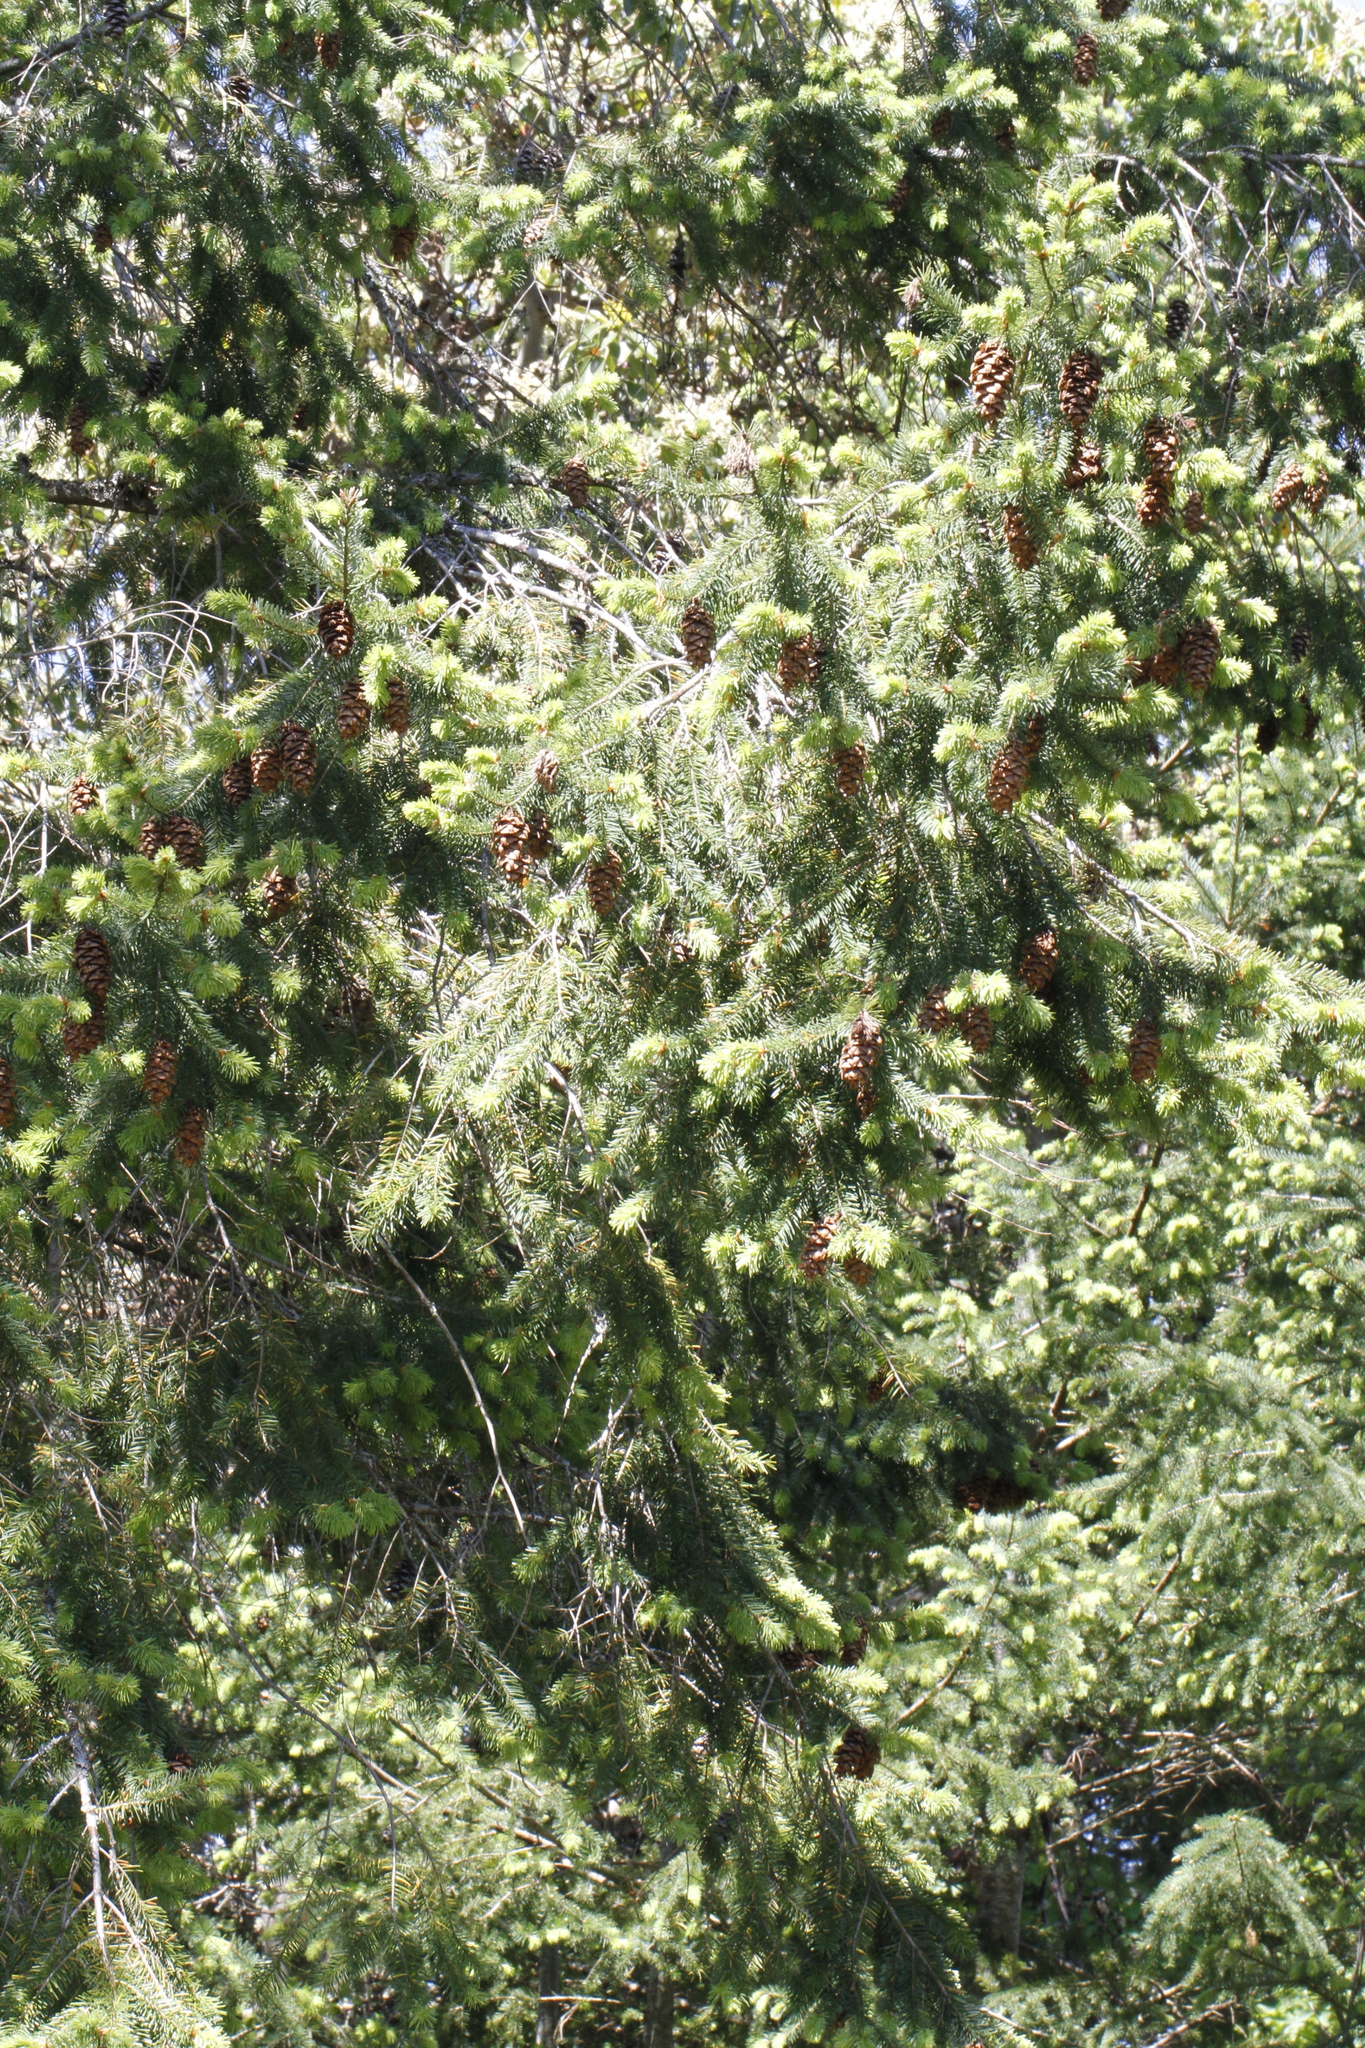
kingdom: Plantae
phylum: Tracheophyta
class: Pinopsida
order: Pinales
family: Pinaceae
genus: Pseudotsuga
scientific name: Pseudotsuga menziesii
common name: Douglas fir
